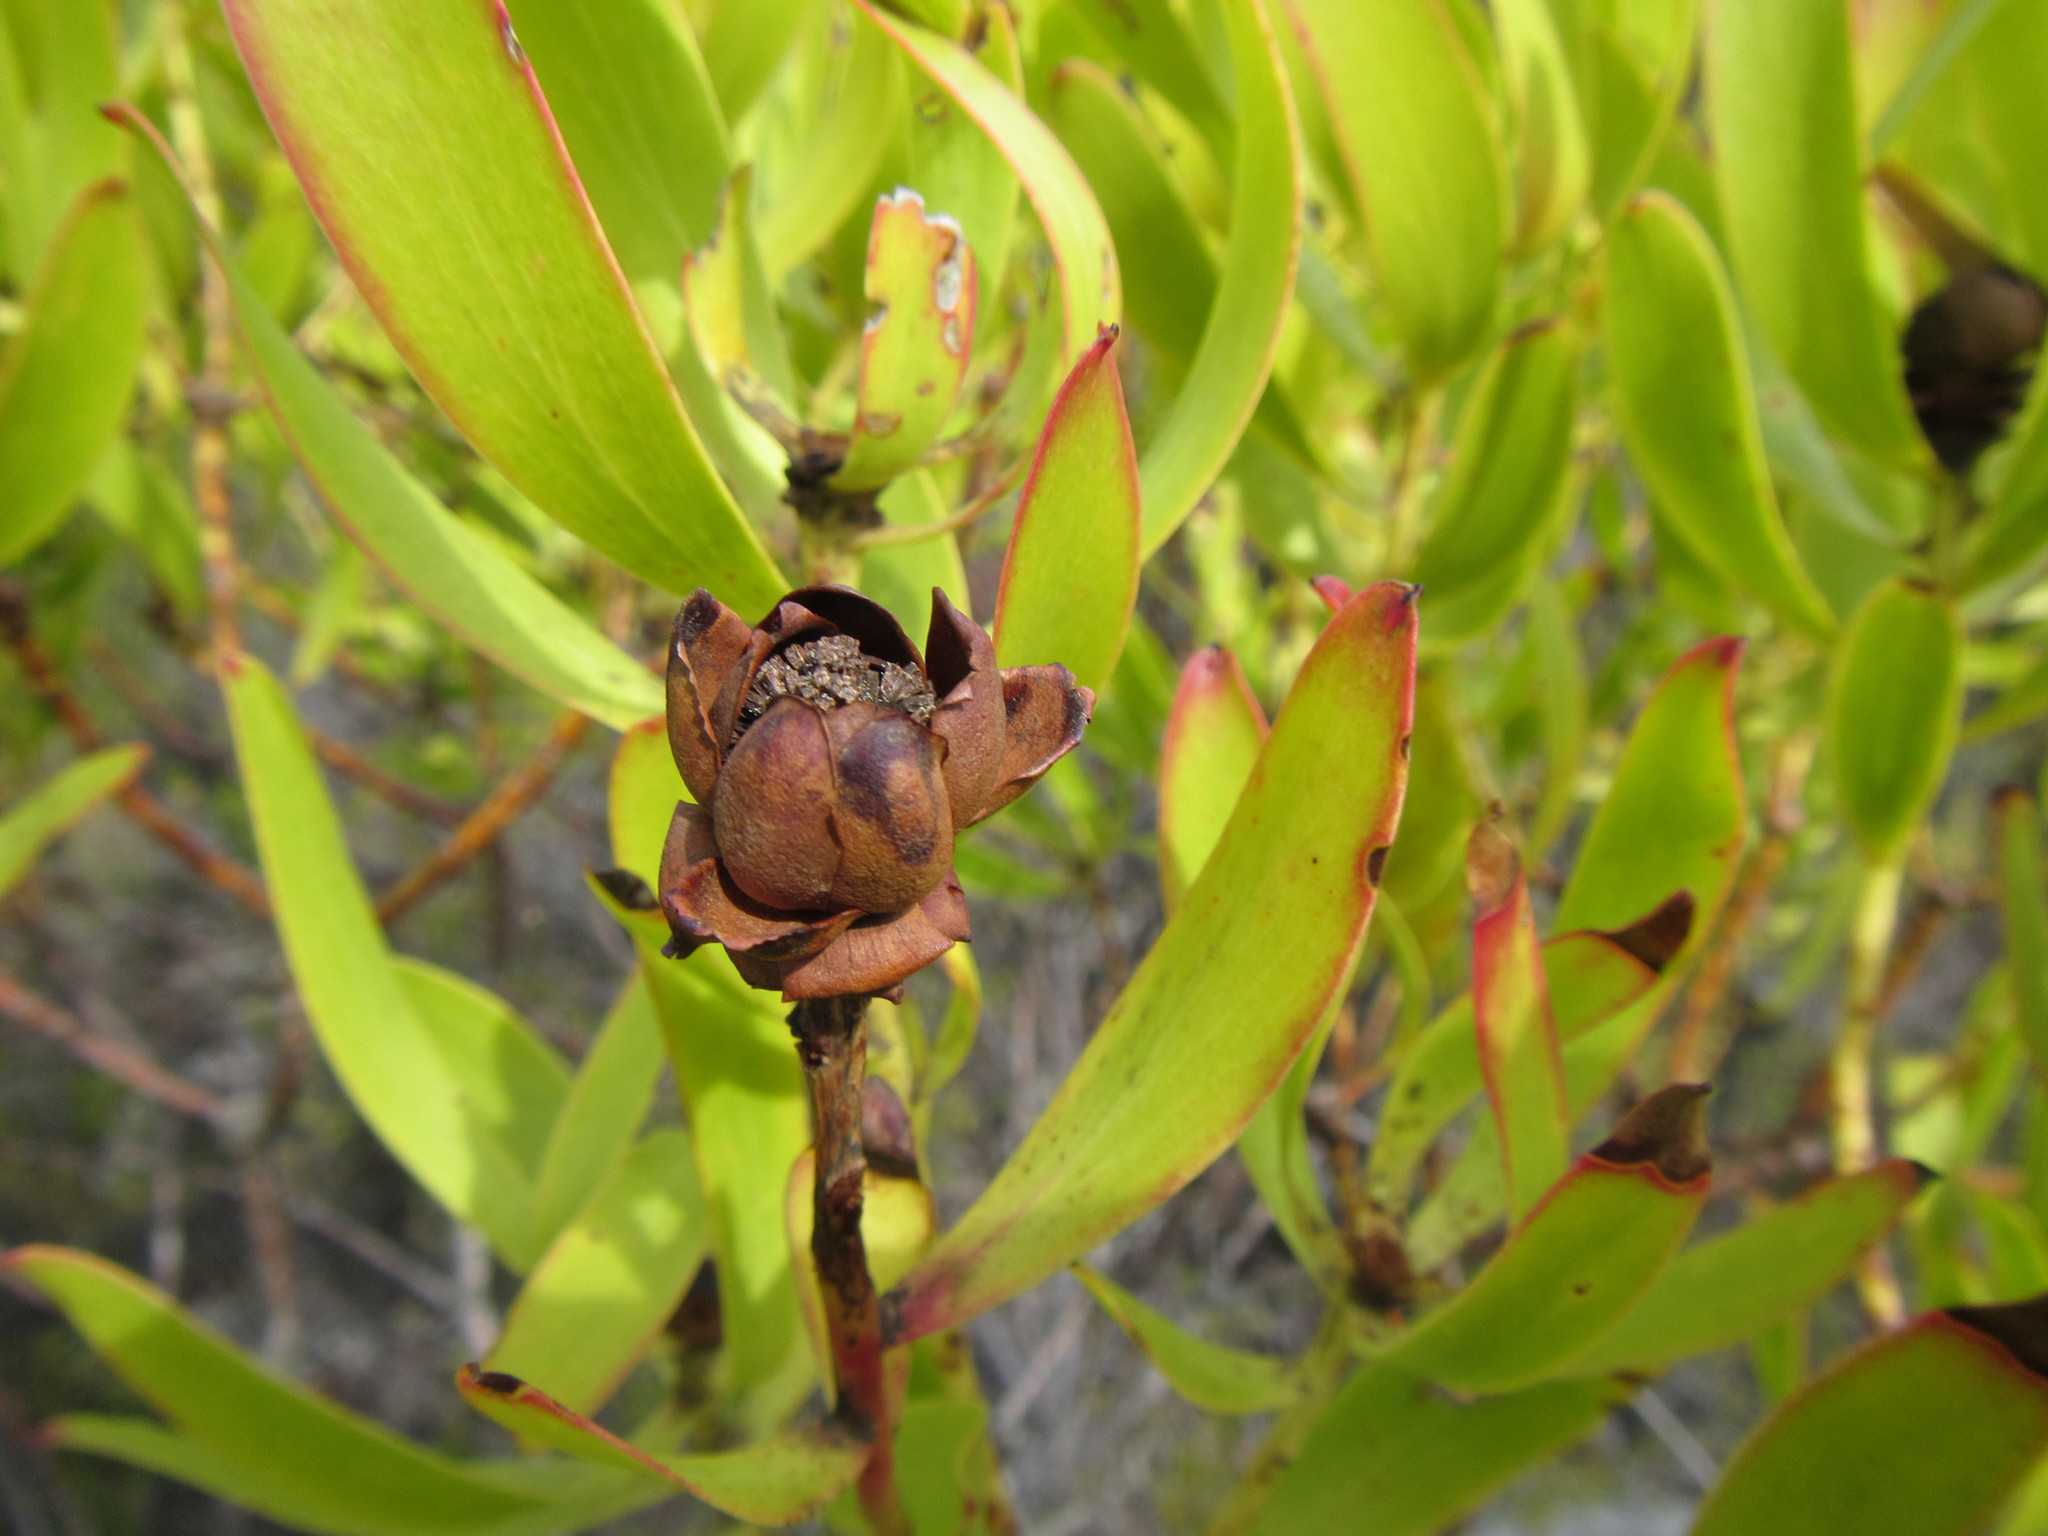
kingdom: Plantae
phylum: Tracheophyta
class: Magnoliopsida
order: Proteales
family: Proteaceae
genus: Leucadendron
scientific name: Leucadendron microcephalum
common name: Oilbract conebush
